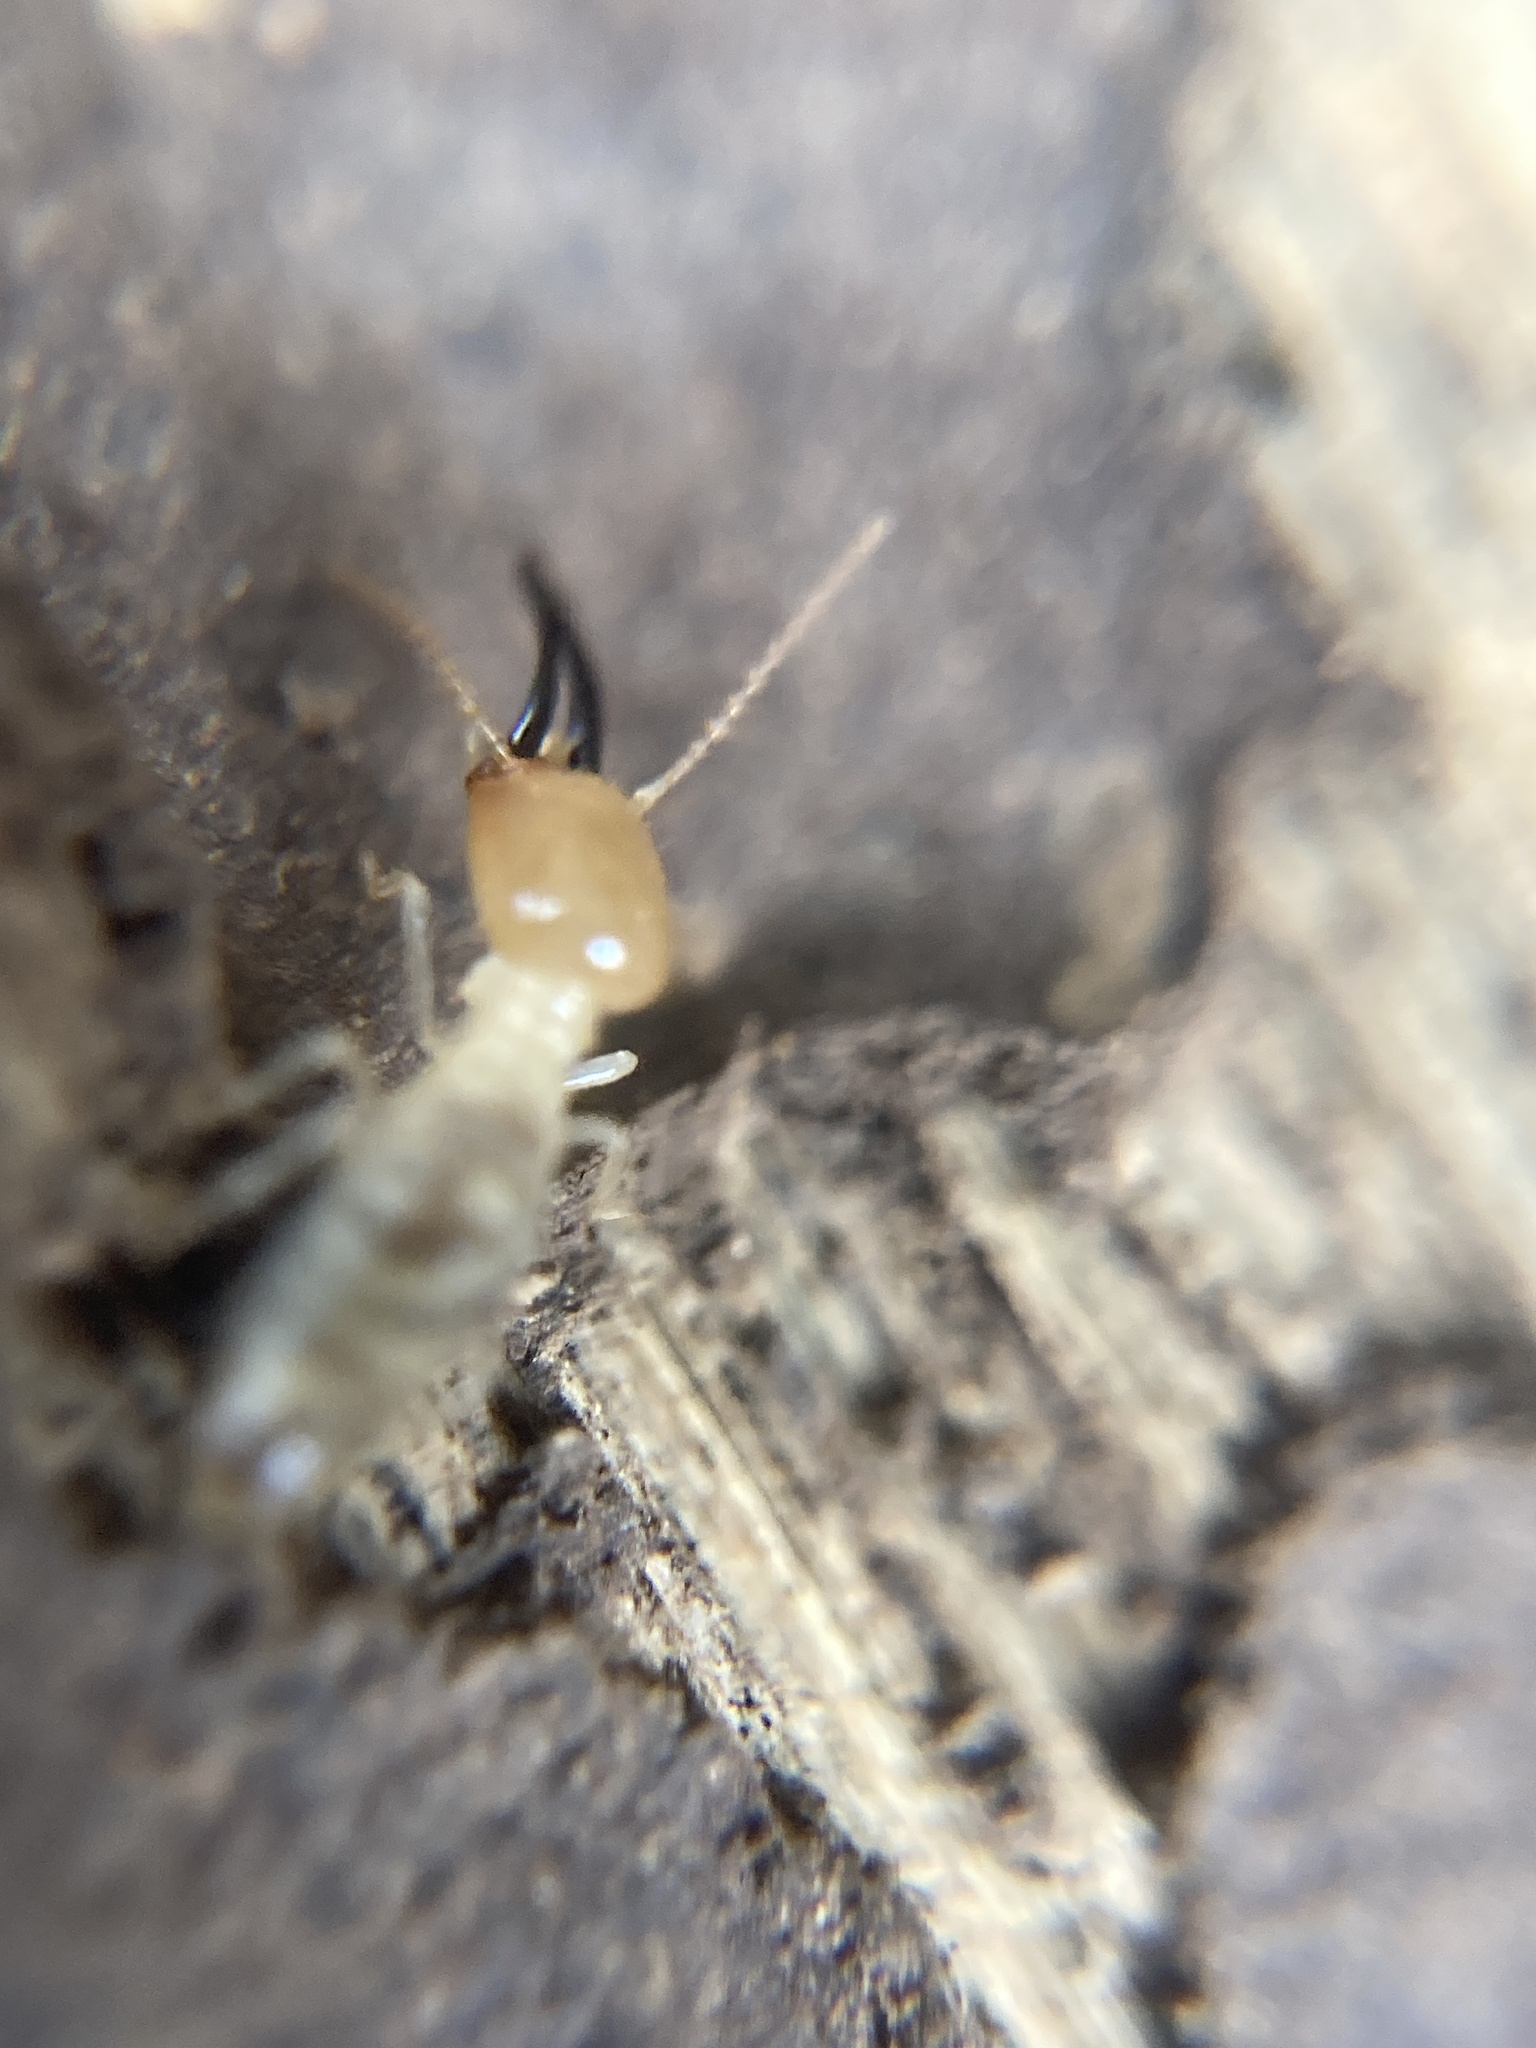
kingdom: Animalia
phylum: Arthropoda
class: Insecta
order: Blattodea
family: Termitidae
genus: Protocapritermes
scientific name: Protocapritermes krisiformis
